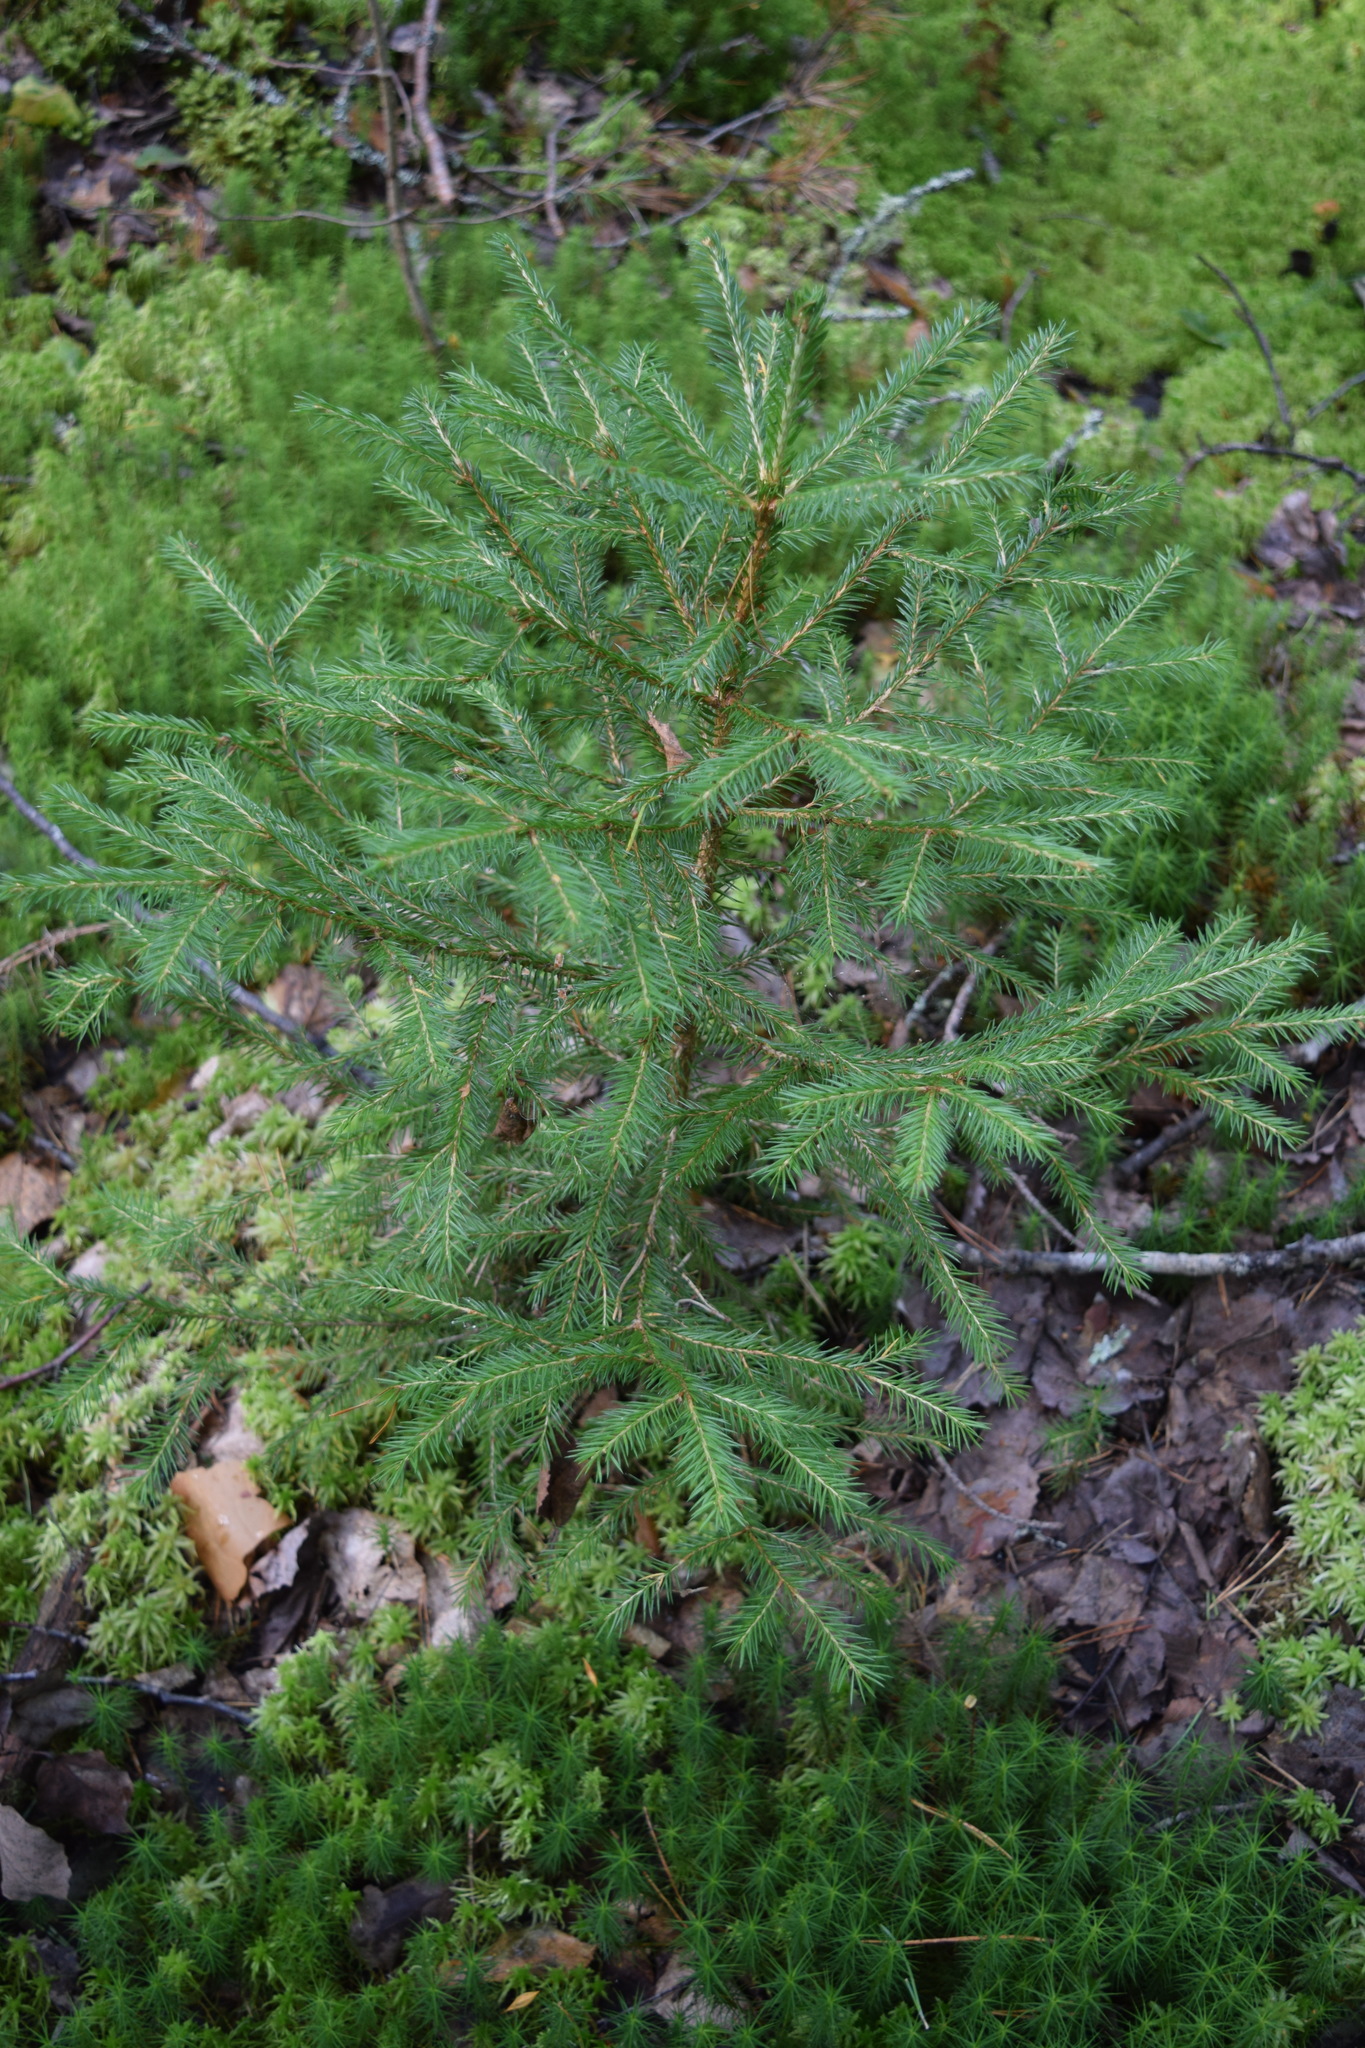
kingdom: Plantae
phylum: Tracheophyta
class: Pinopsida
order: Pinales
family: Pinaceae
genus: Picea
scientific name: Picea abies
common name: Norway spruce
